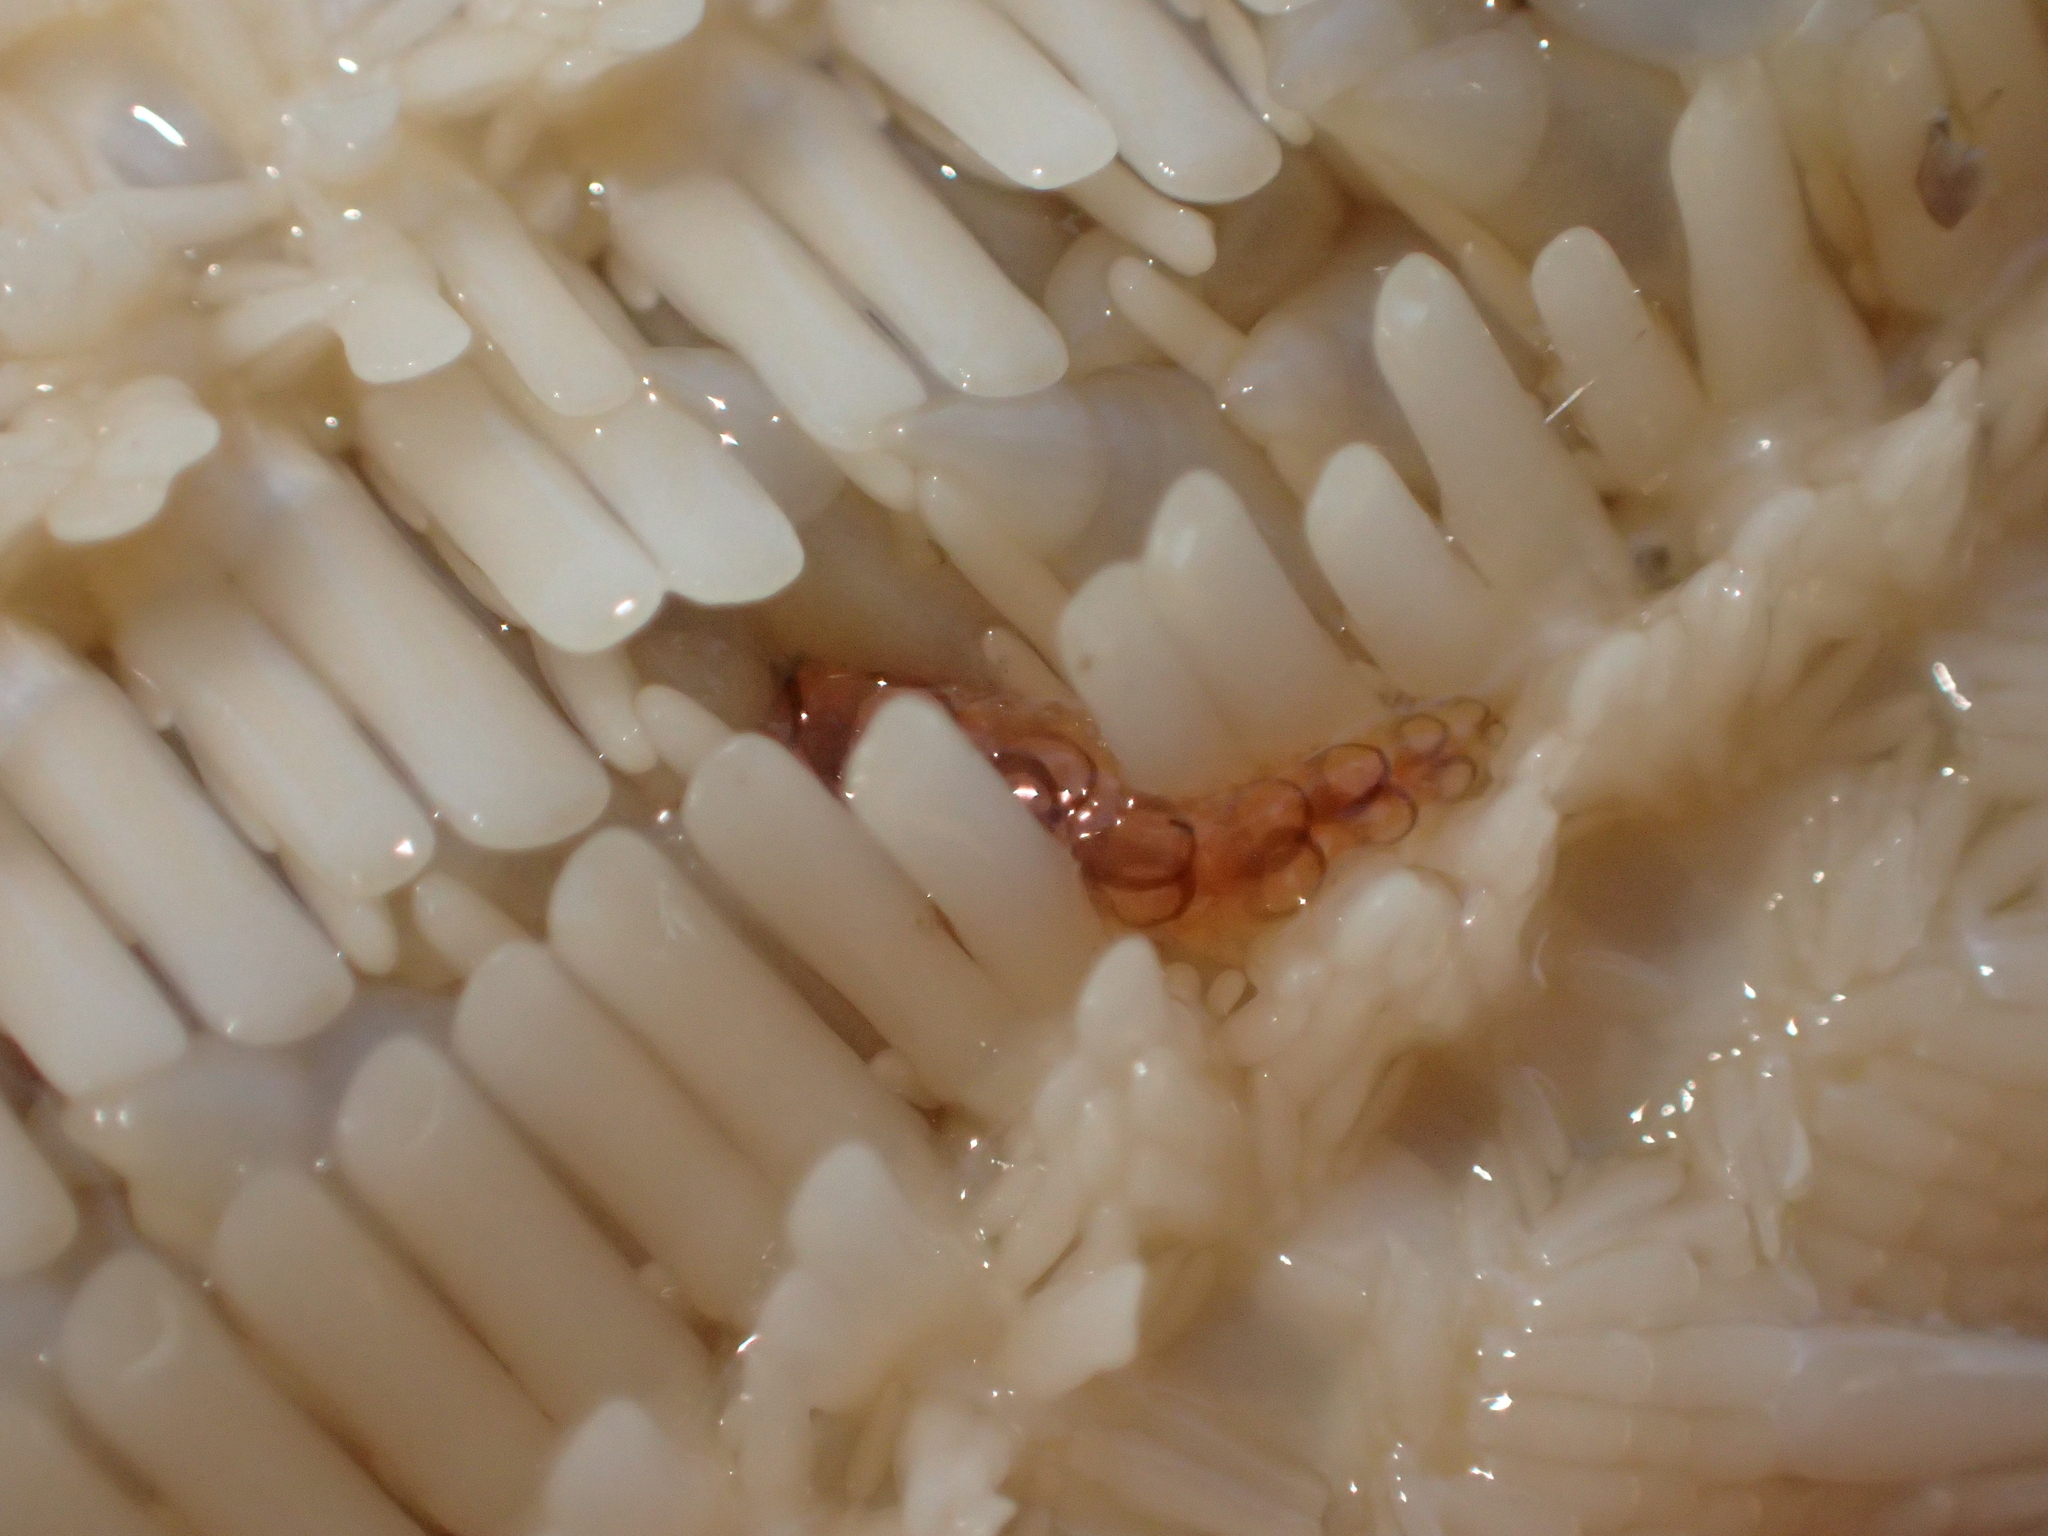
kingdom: Animalia
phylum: Annelida
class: Polychaeta
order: Phyllodocida
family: Polynoidae
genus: Acholoe
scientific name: Acholoe squamosa
